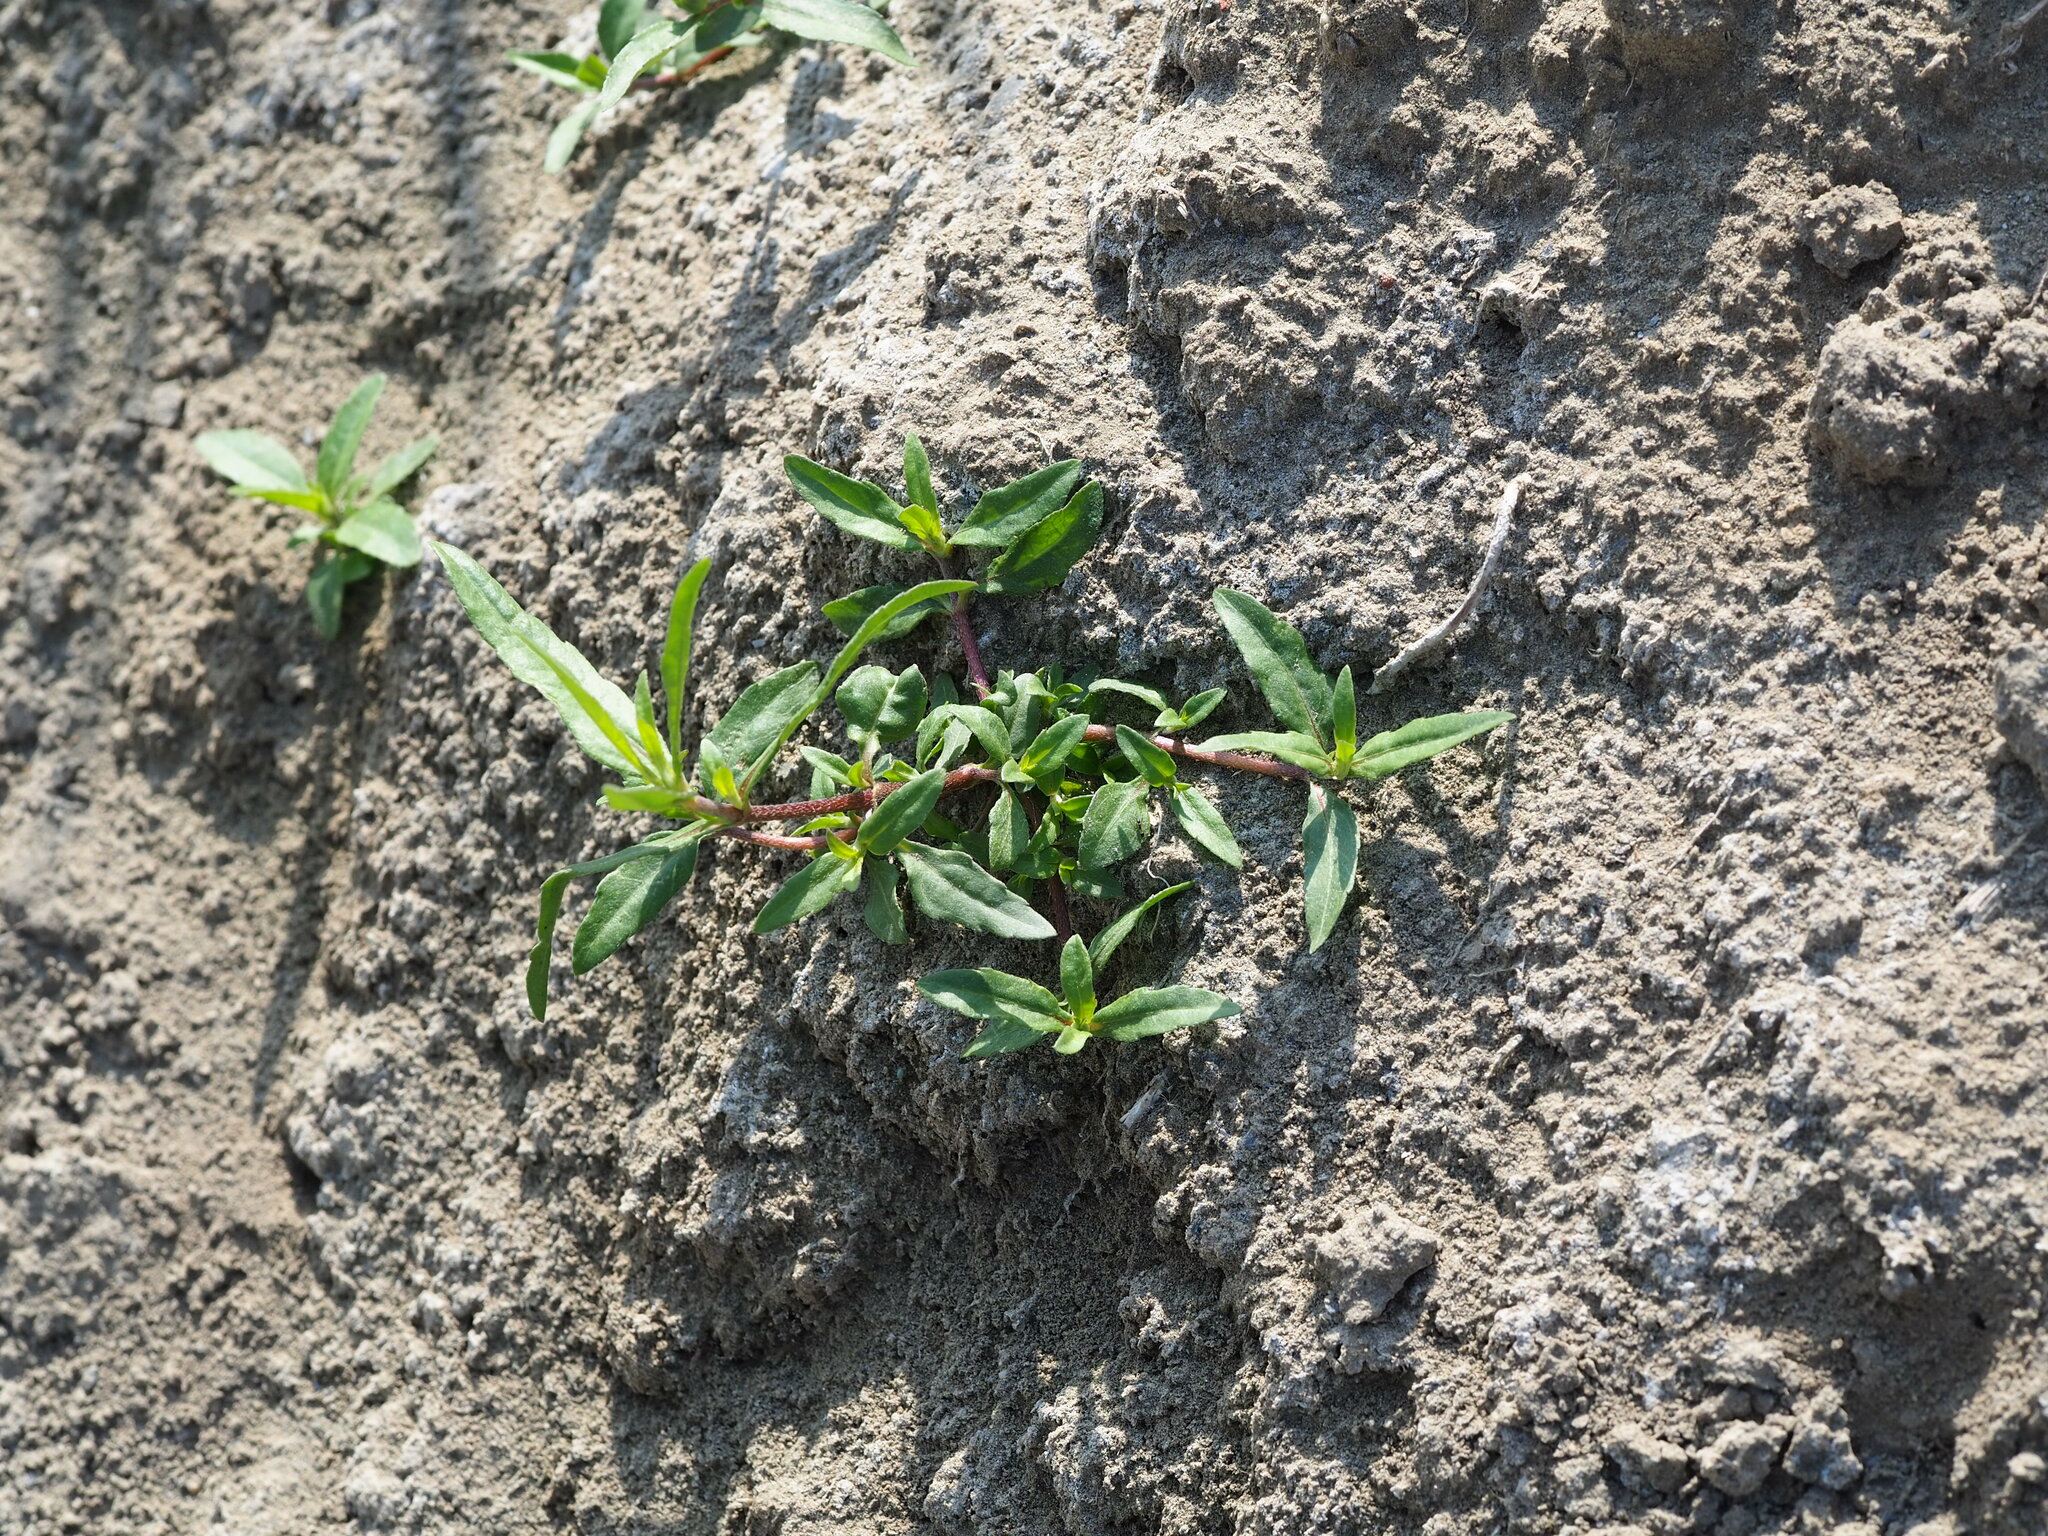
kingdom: Plantae
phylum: Tracheophyta
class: Magnoliopsida
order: Asterales
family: Asteraceae
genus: Eclipta
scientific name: Eclipta prostrata
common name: False daisy
